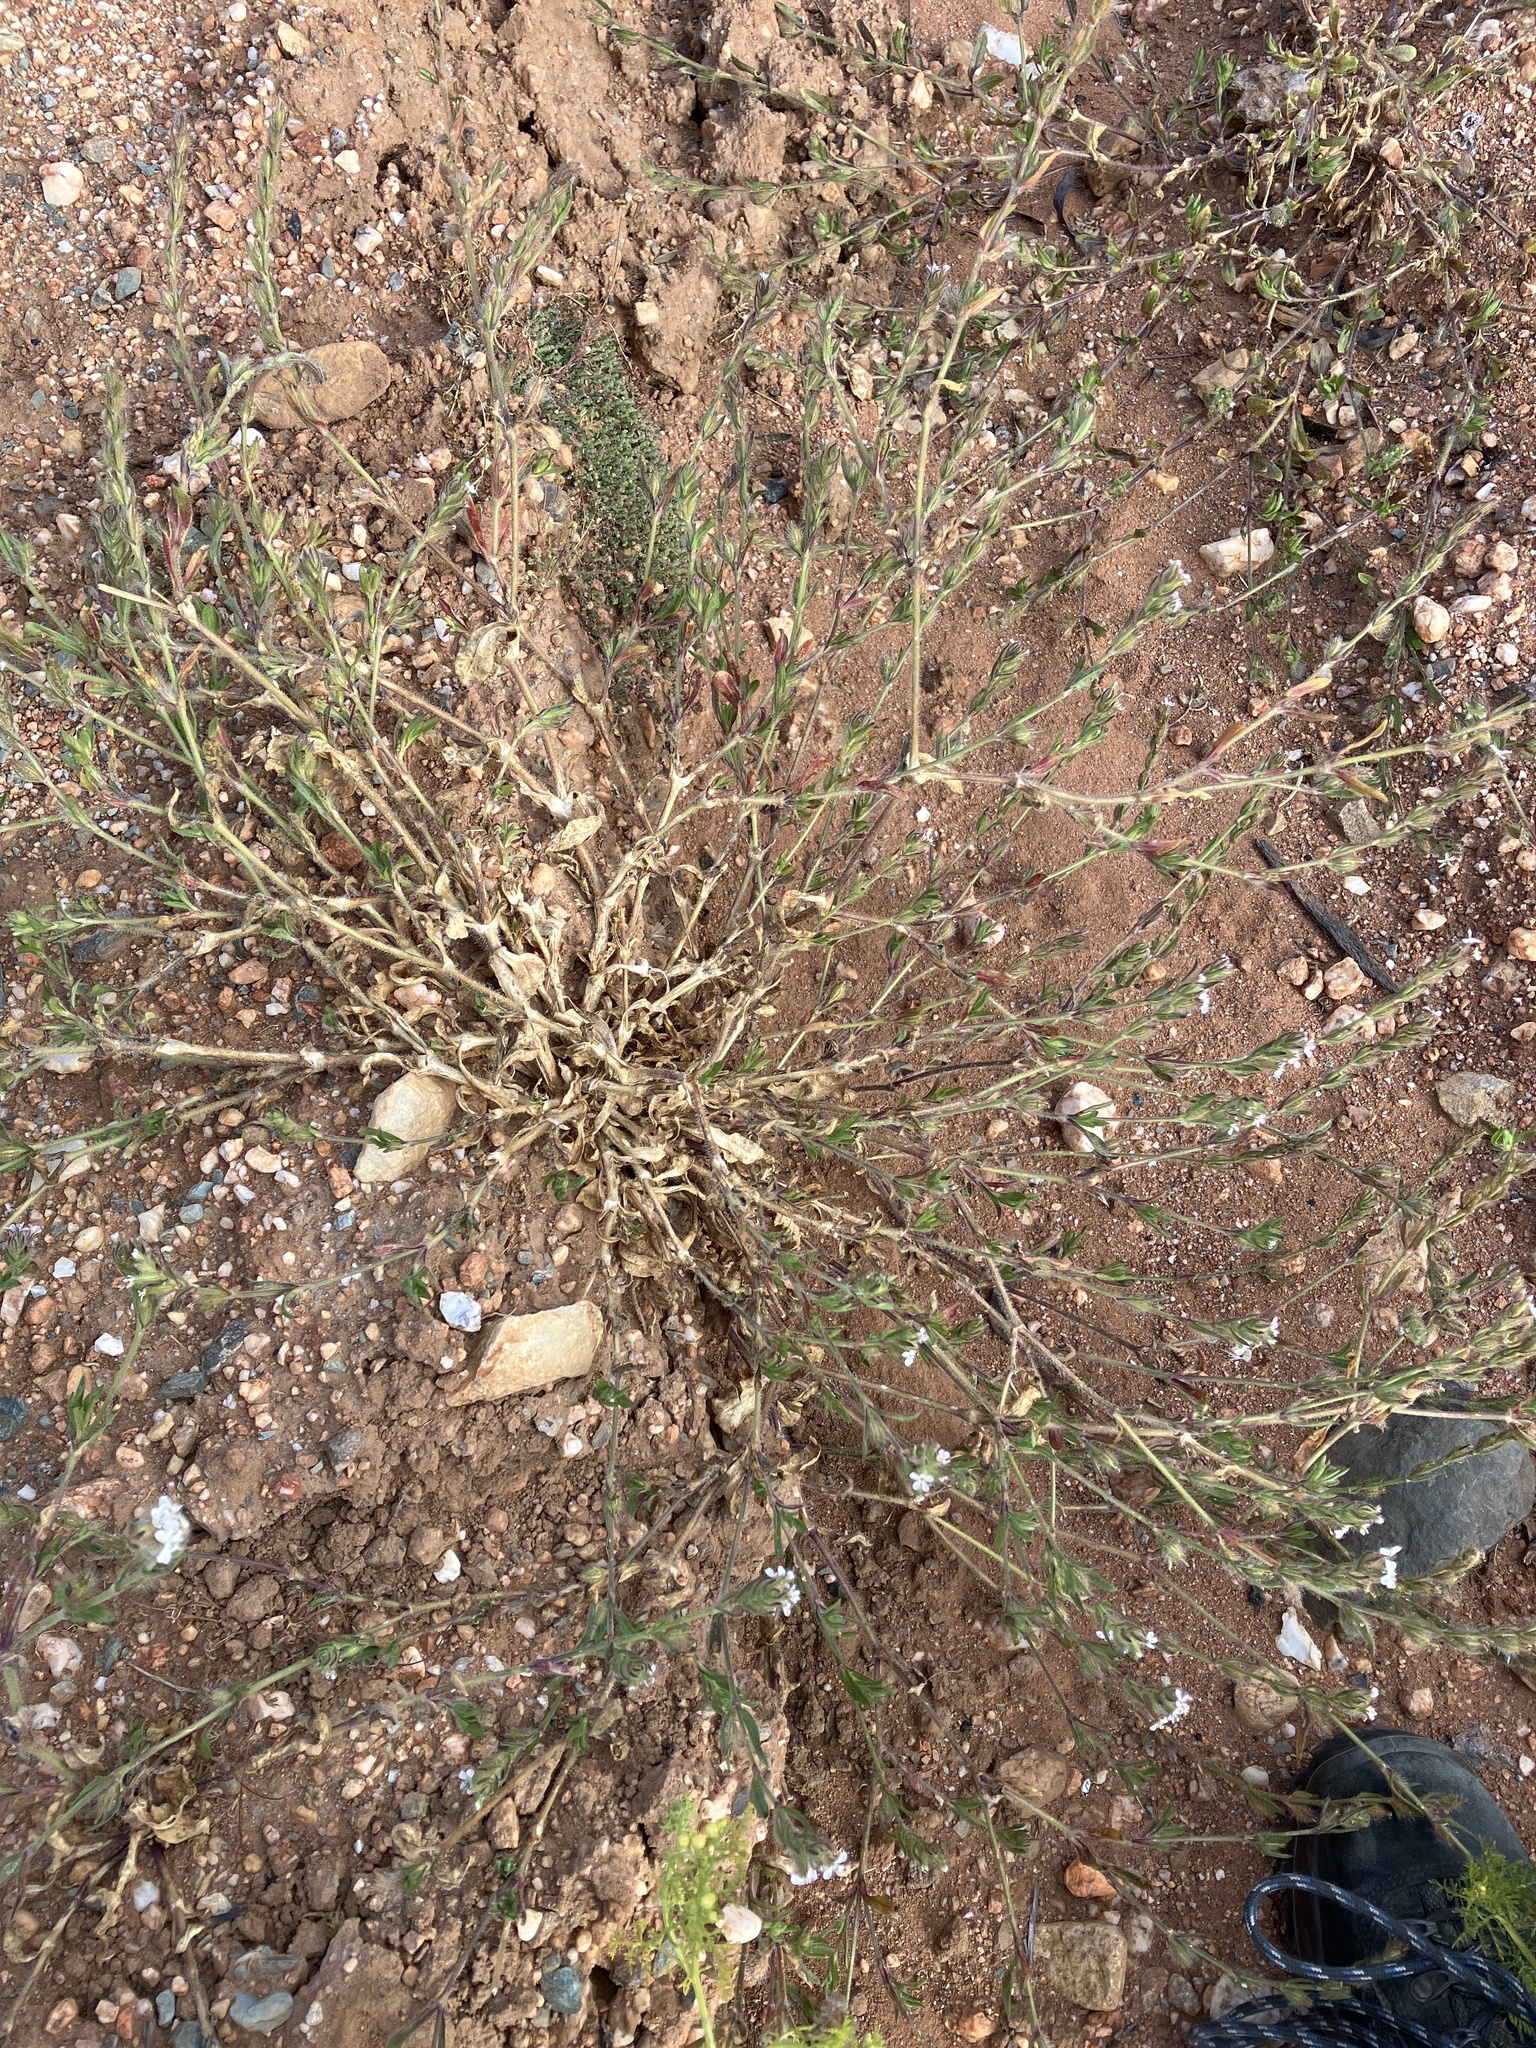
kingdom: Plantae
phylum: Tracheophyta
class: Magnoliopsida
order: Caryophyllales
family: Caryophyllaceae
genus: Silene
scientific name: Silene gallica
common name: Small-flowered catchfly
